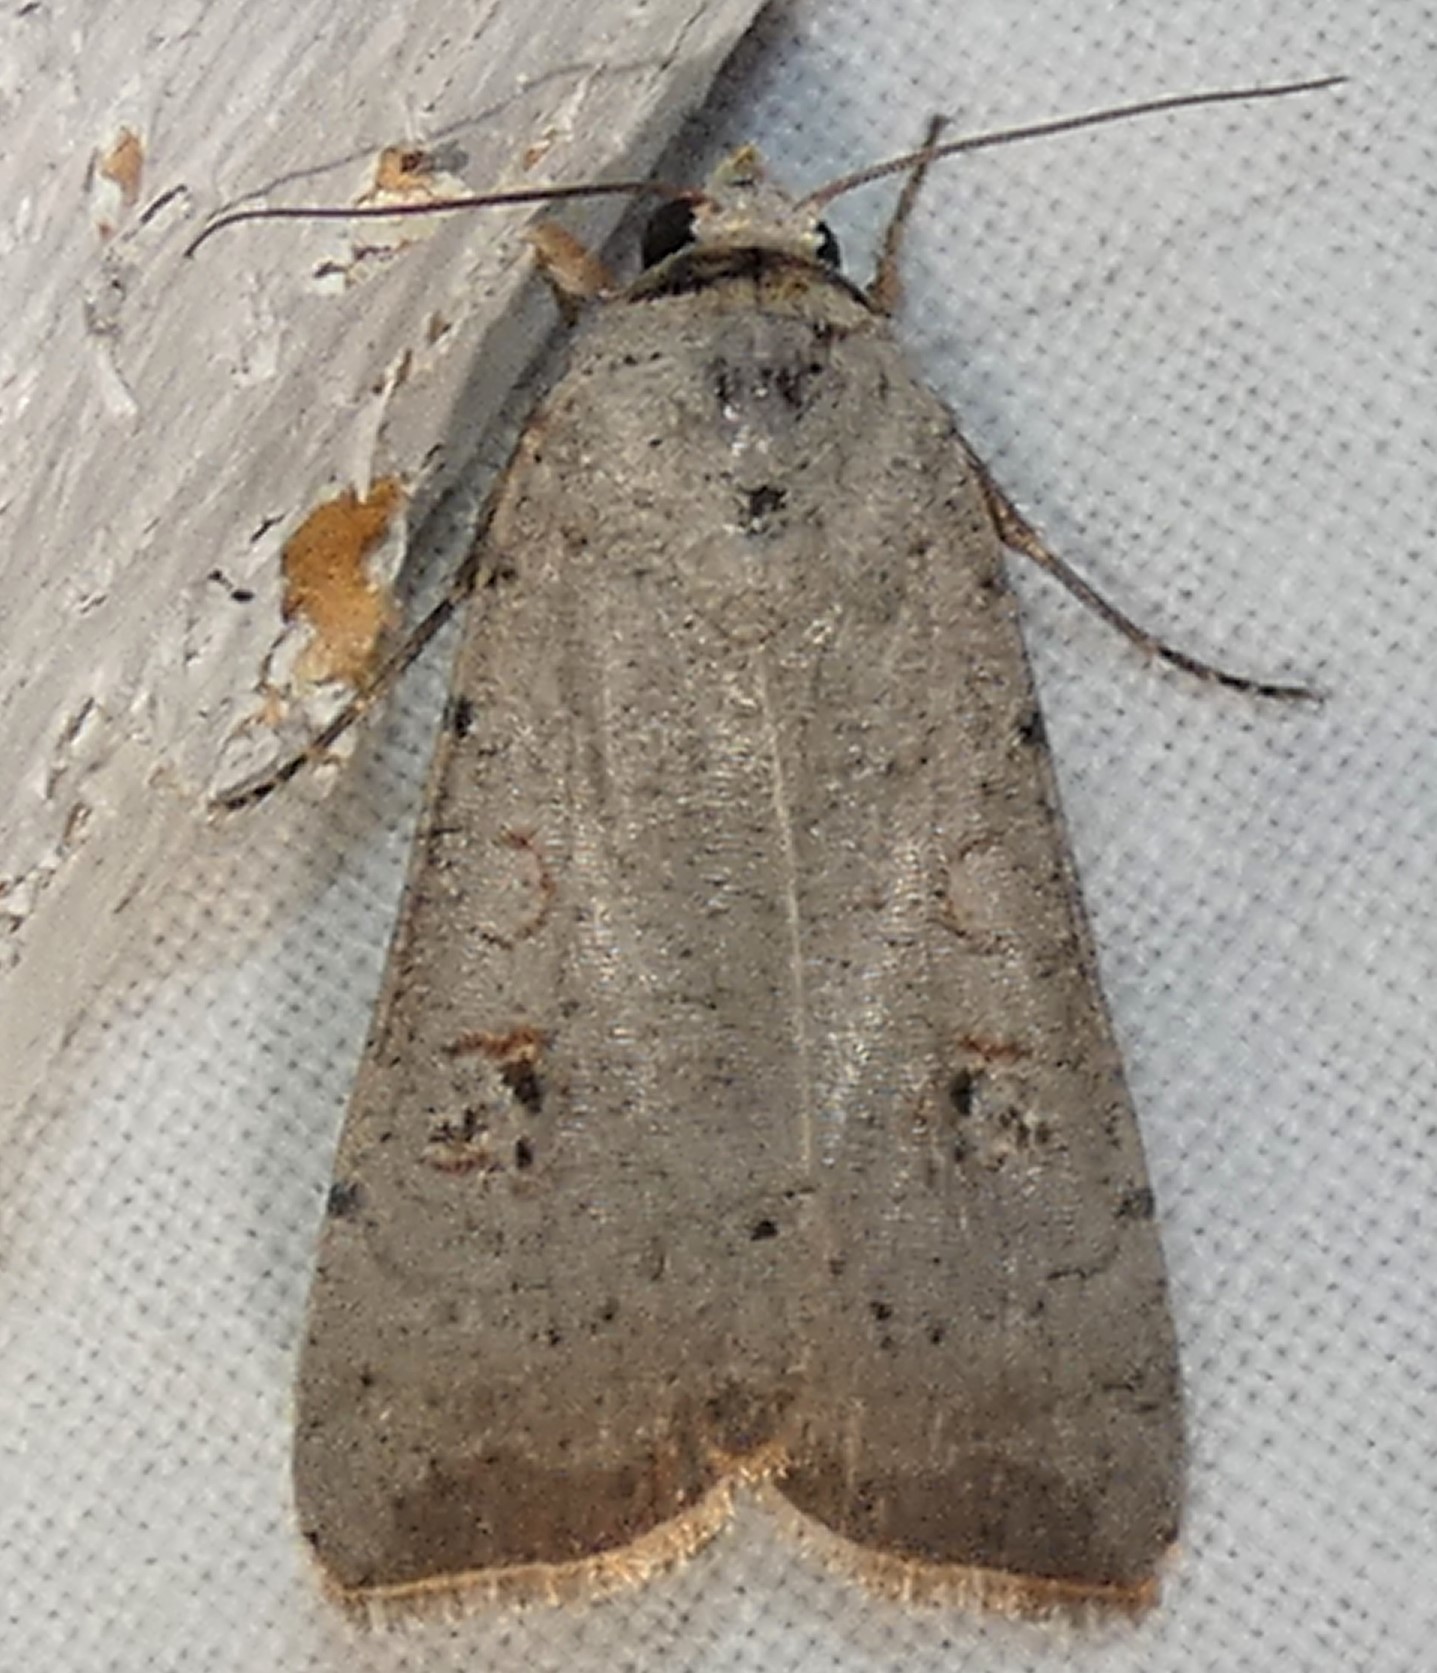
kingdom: Animalia
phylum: Arthropoda
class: Insecta
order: Lepidoptera
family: Noctuidae
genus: Anicla
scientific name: Anicla infecta
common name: Green cutworm
